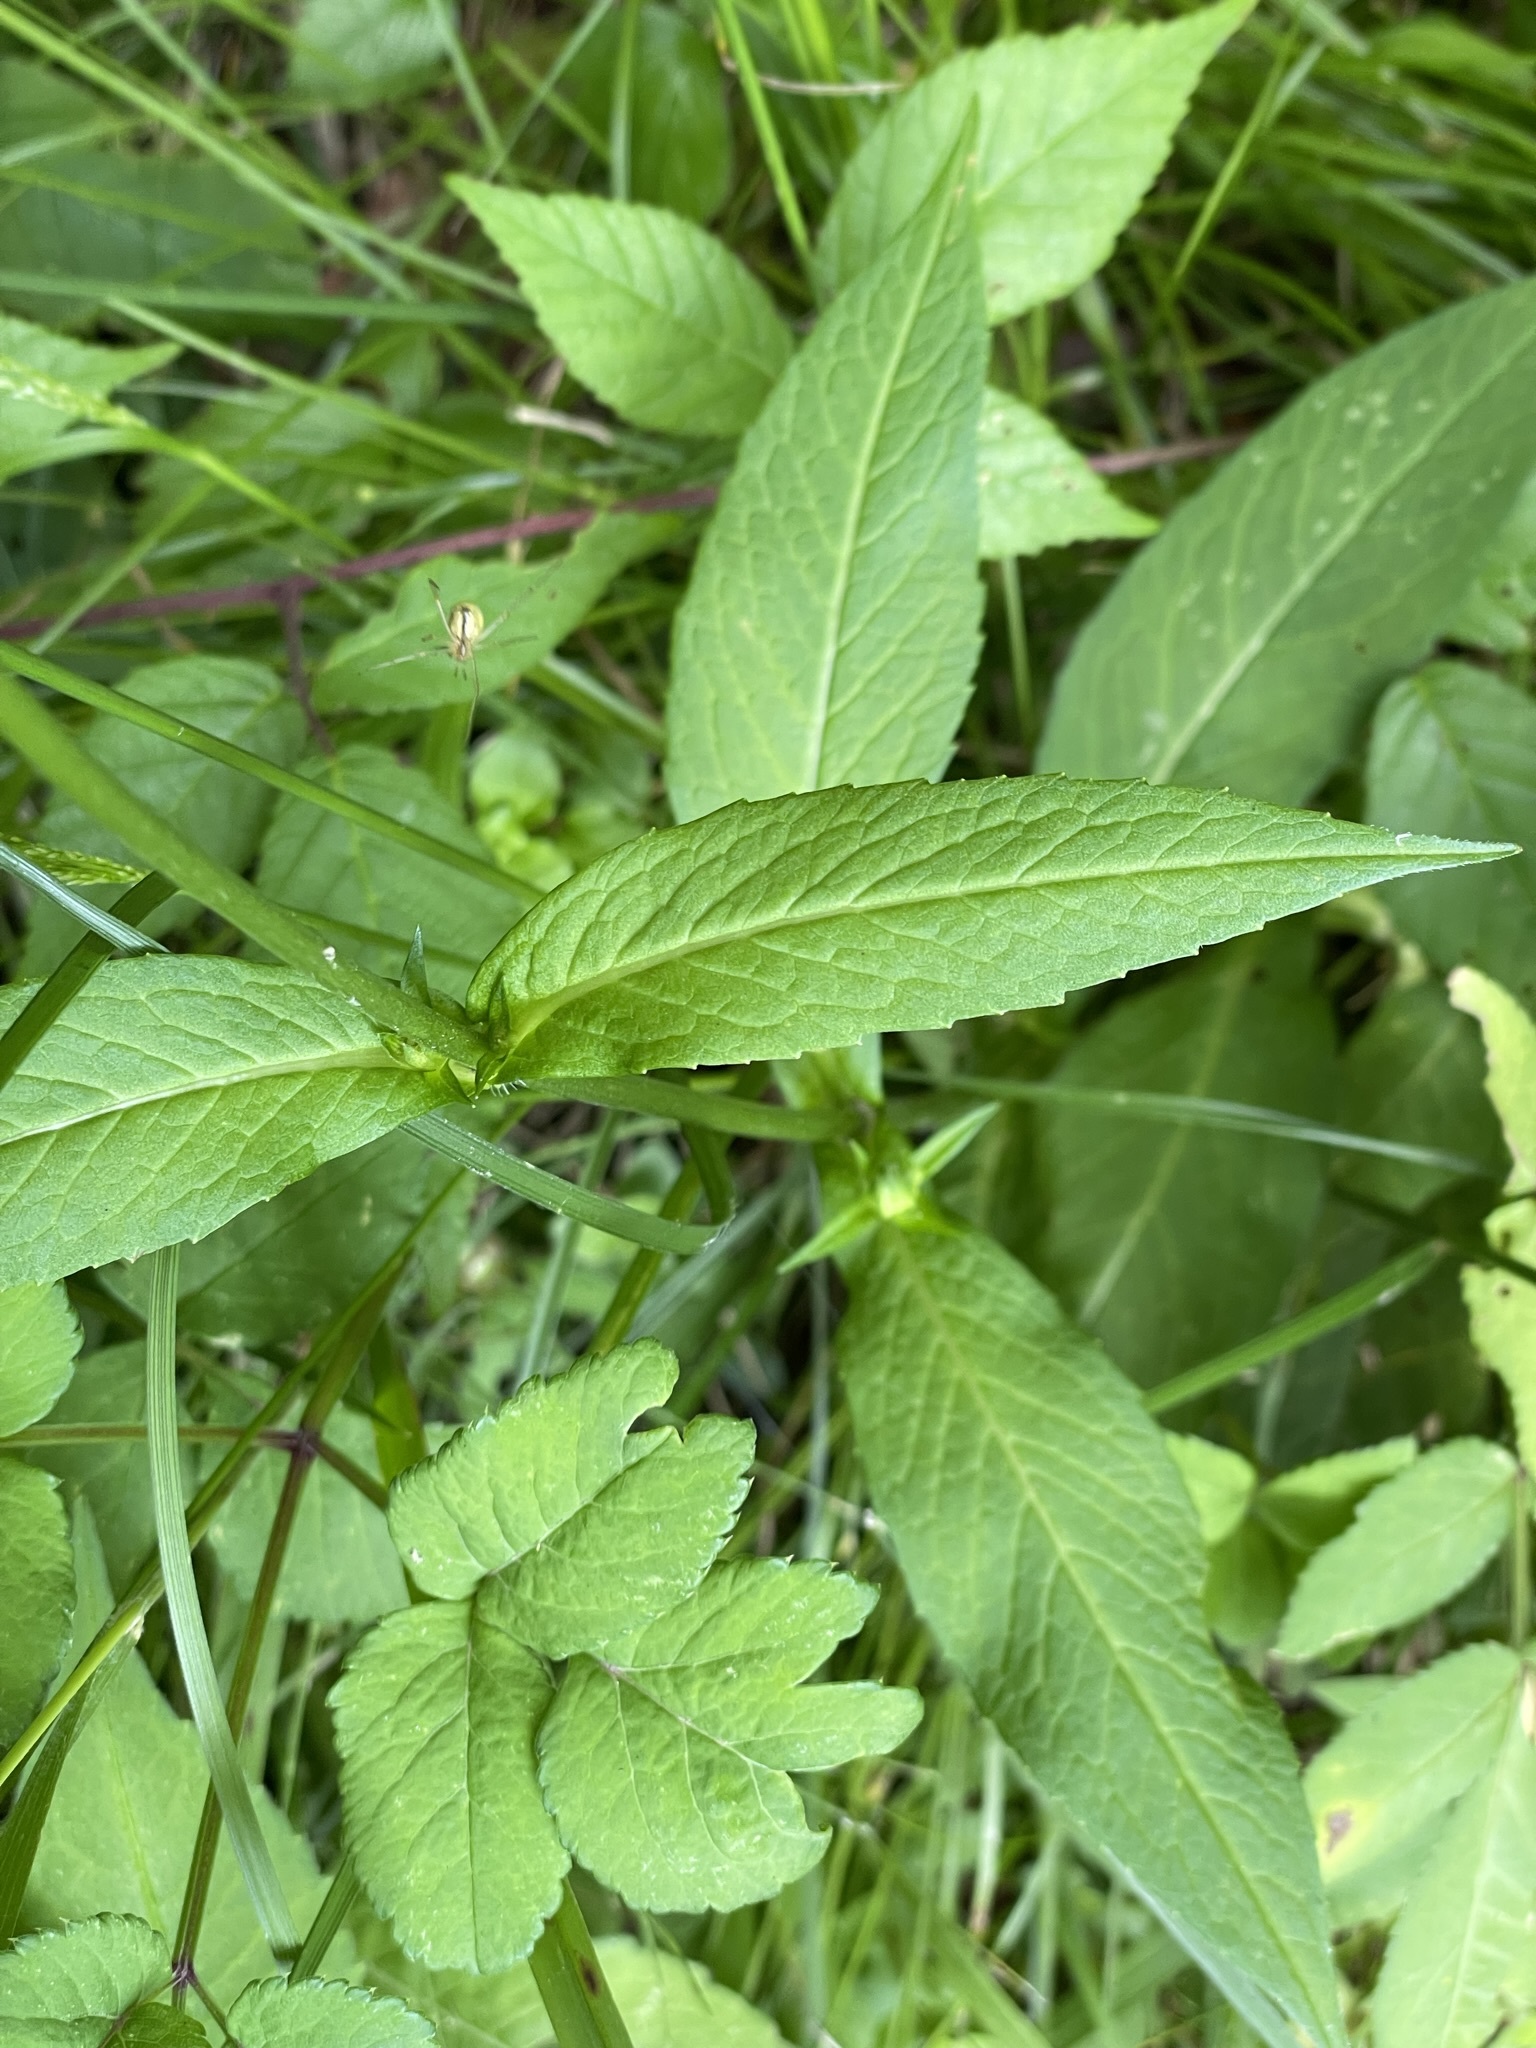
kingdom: Plantae
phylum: Tracheophyta
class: Magnoliopsida
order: Dipsacales
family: Caprifoliaceae
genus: Knautia
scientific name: Knautia dipsacifolia
